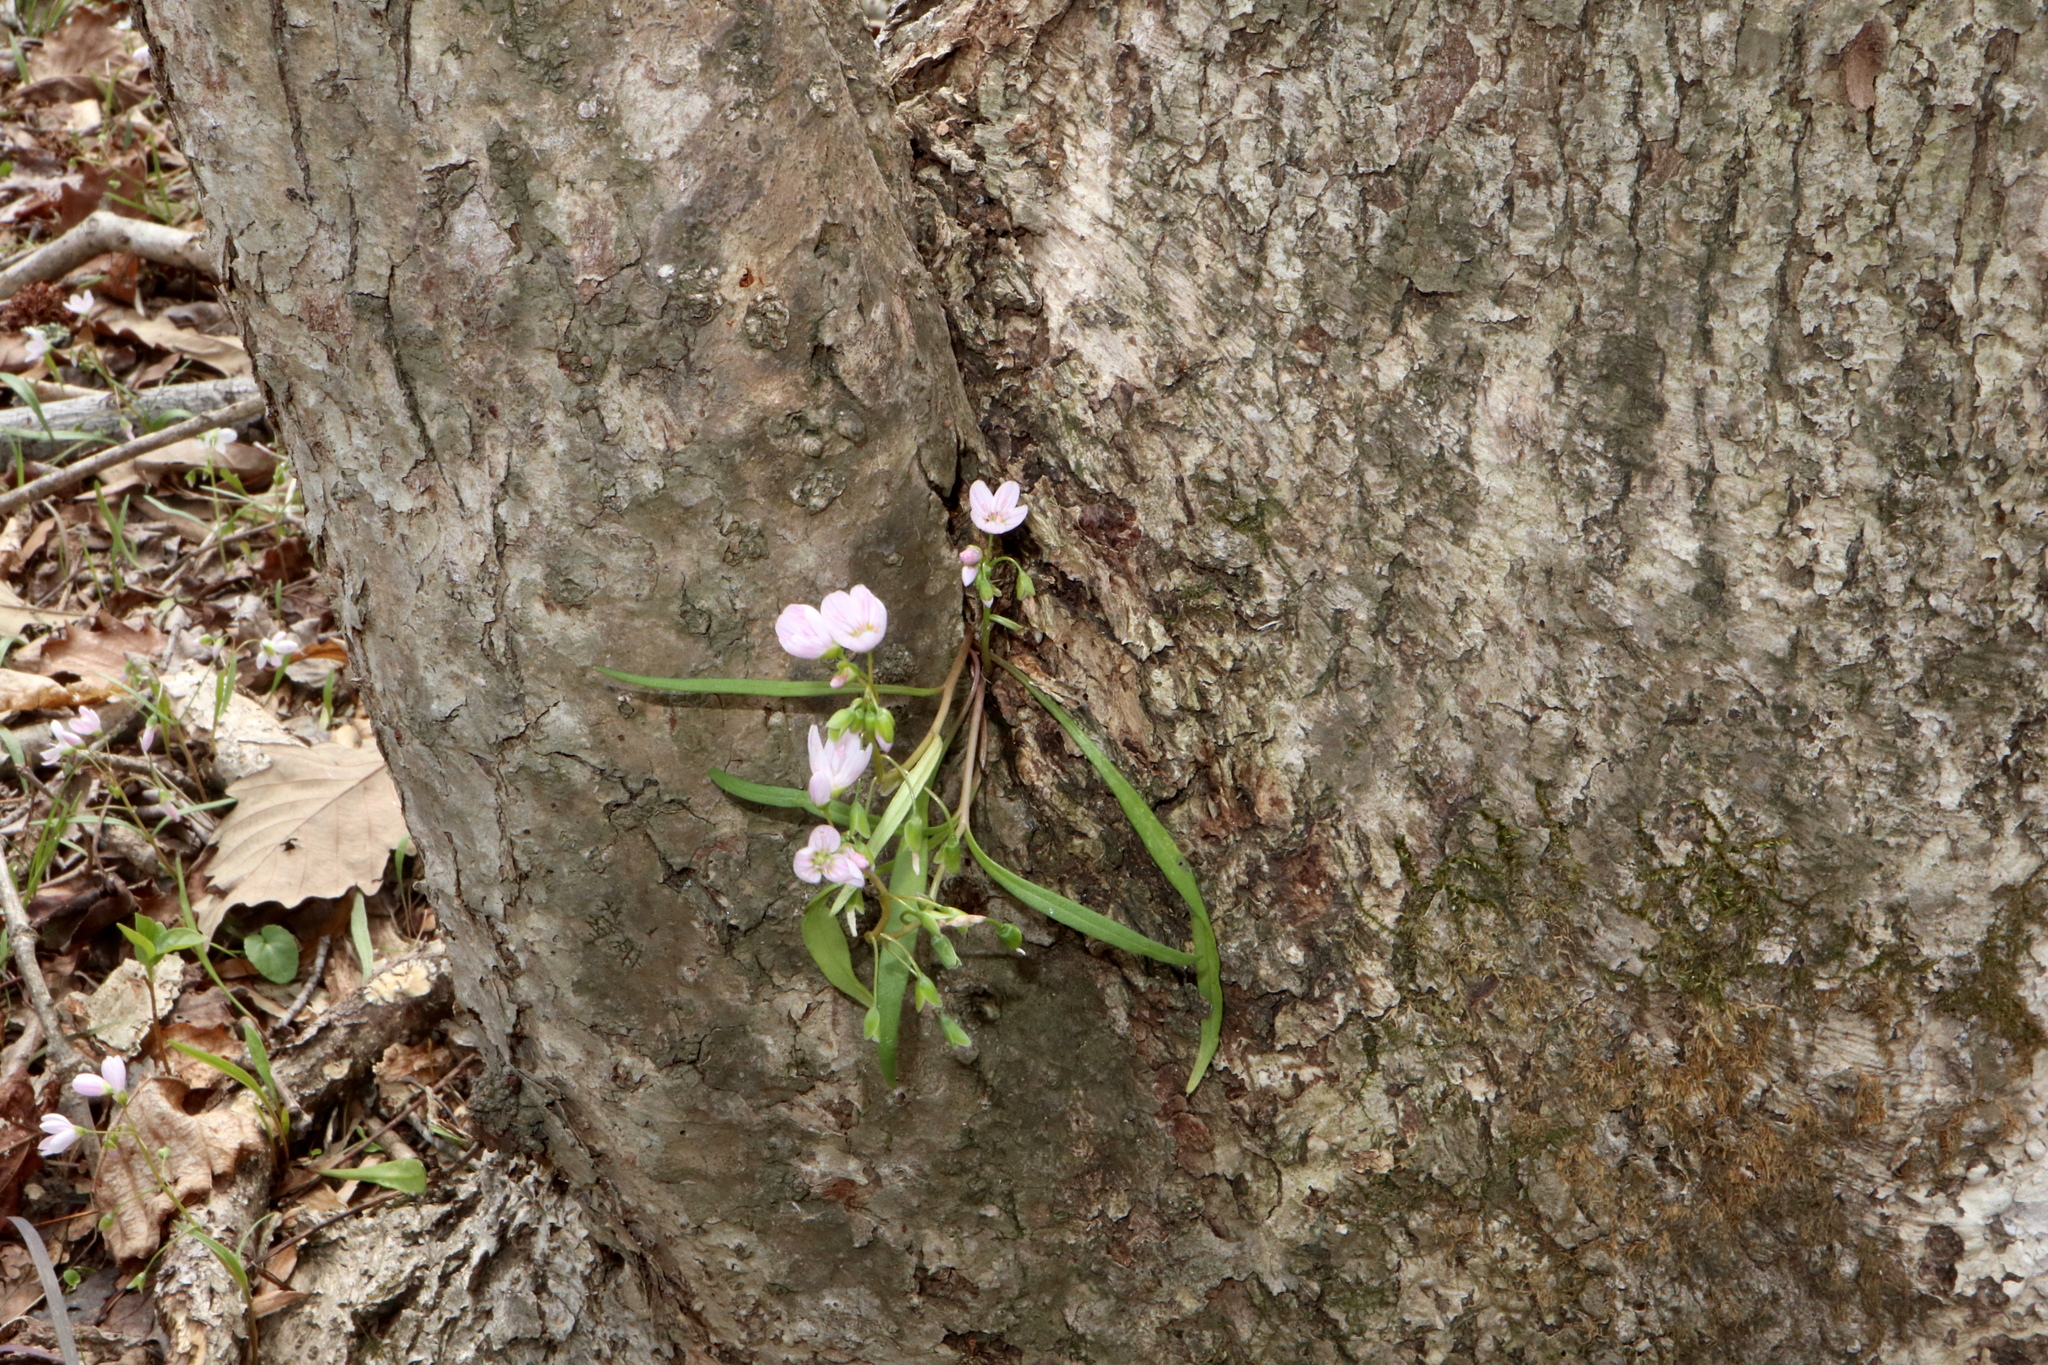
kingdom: Plantae
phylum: Tracheophyta
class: Magnoliopsida
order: Caryophyllales
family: Montiaceae
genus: Claytonia
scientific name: Claytonia virginica
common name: Virginia springbeauty
